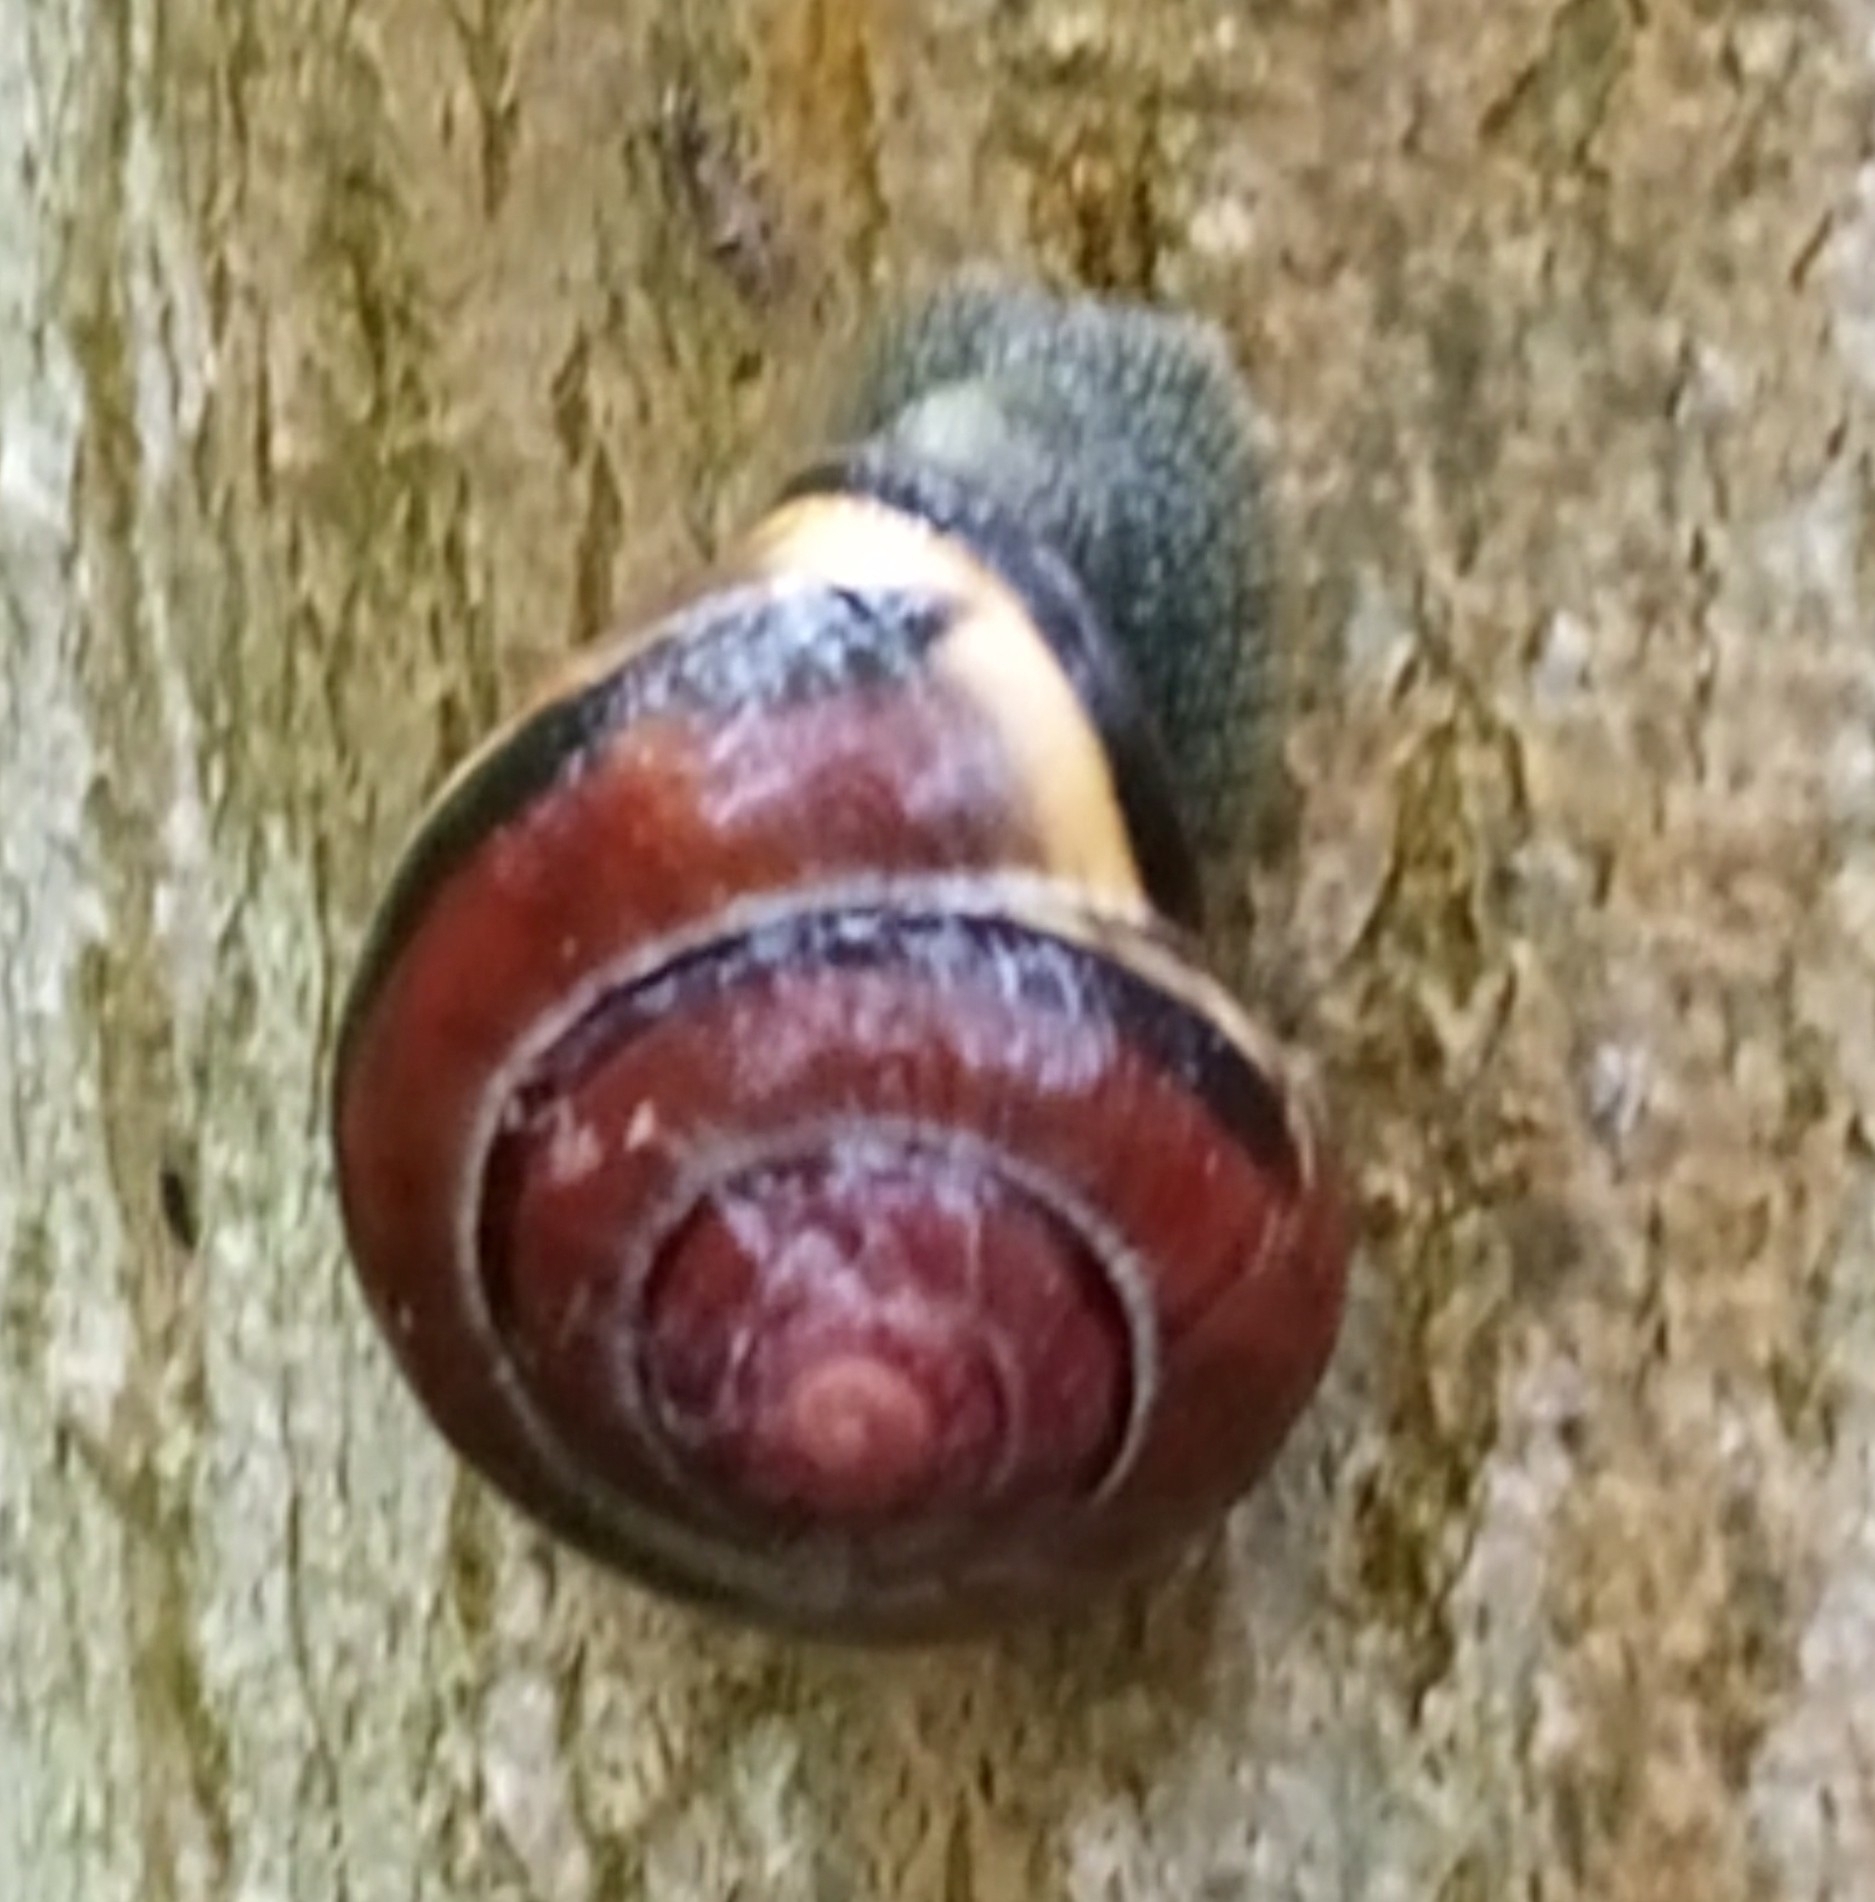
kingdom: Animalia
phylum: Mollusca
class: Gastropoda
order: Stylommatophora
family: Helicidae
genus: Cepaea
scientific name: Cepaea nemoralis
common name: Grovesnail
